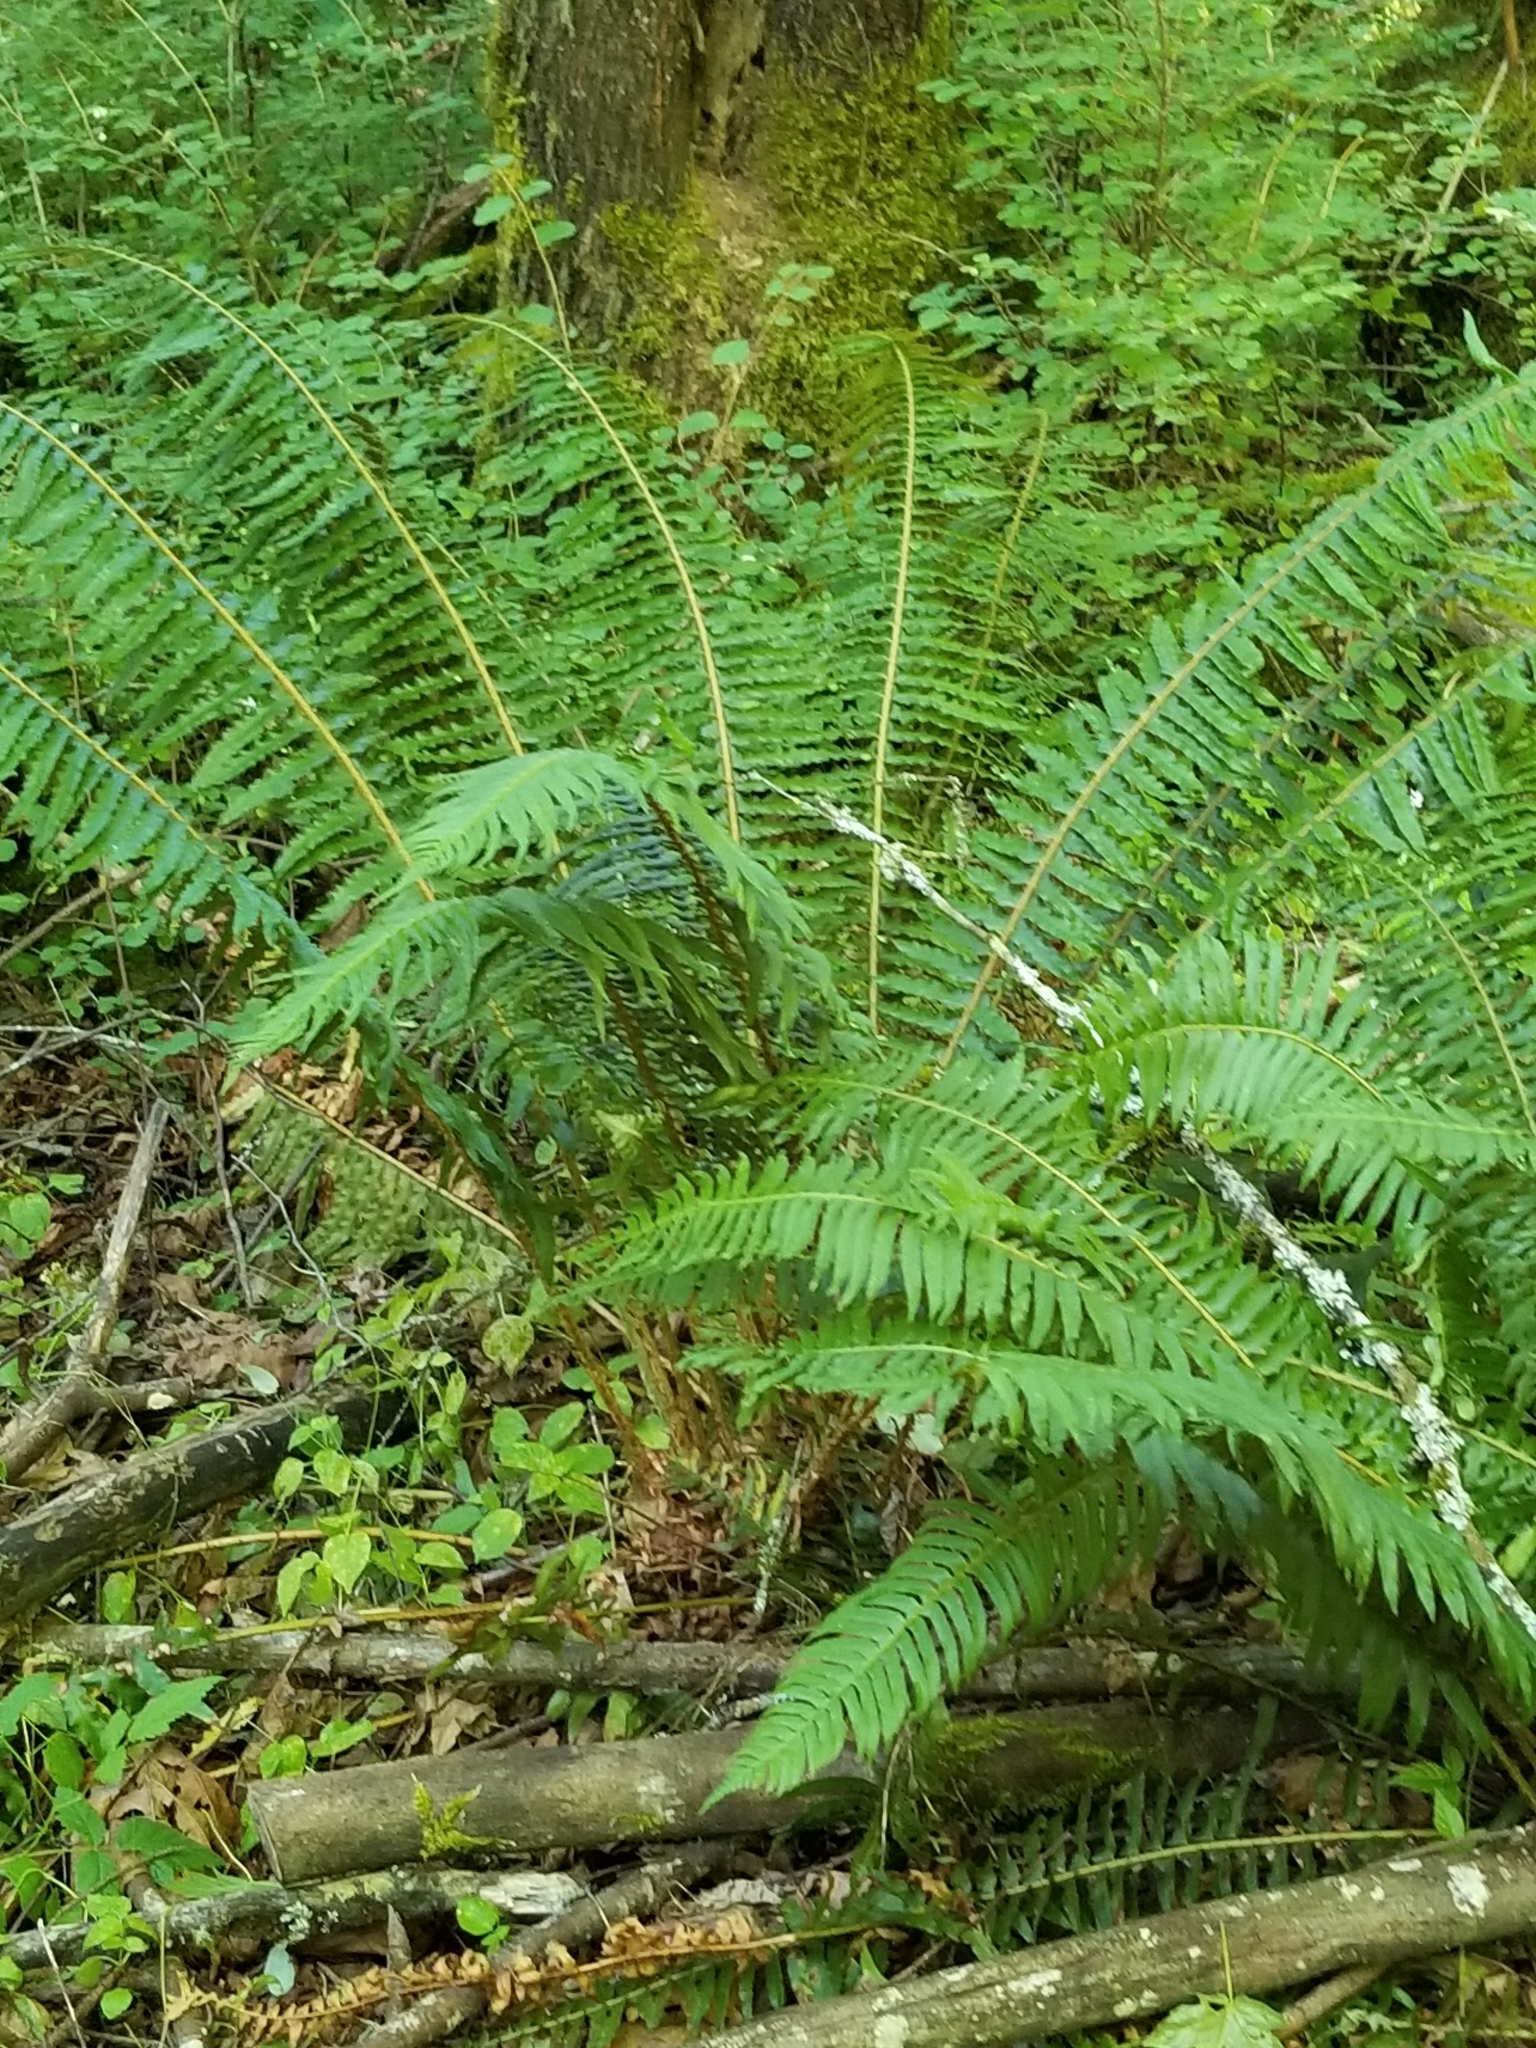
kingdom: Plantae
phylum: Tracheophyta
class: Polypodiopsida
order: Polypodiales
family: Dryopteridaceae
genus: Polystichum
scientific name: Polystichum munitum
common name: Western sword-fern
